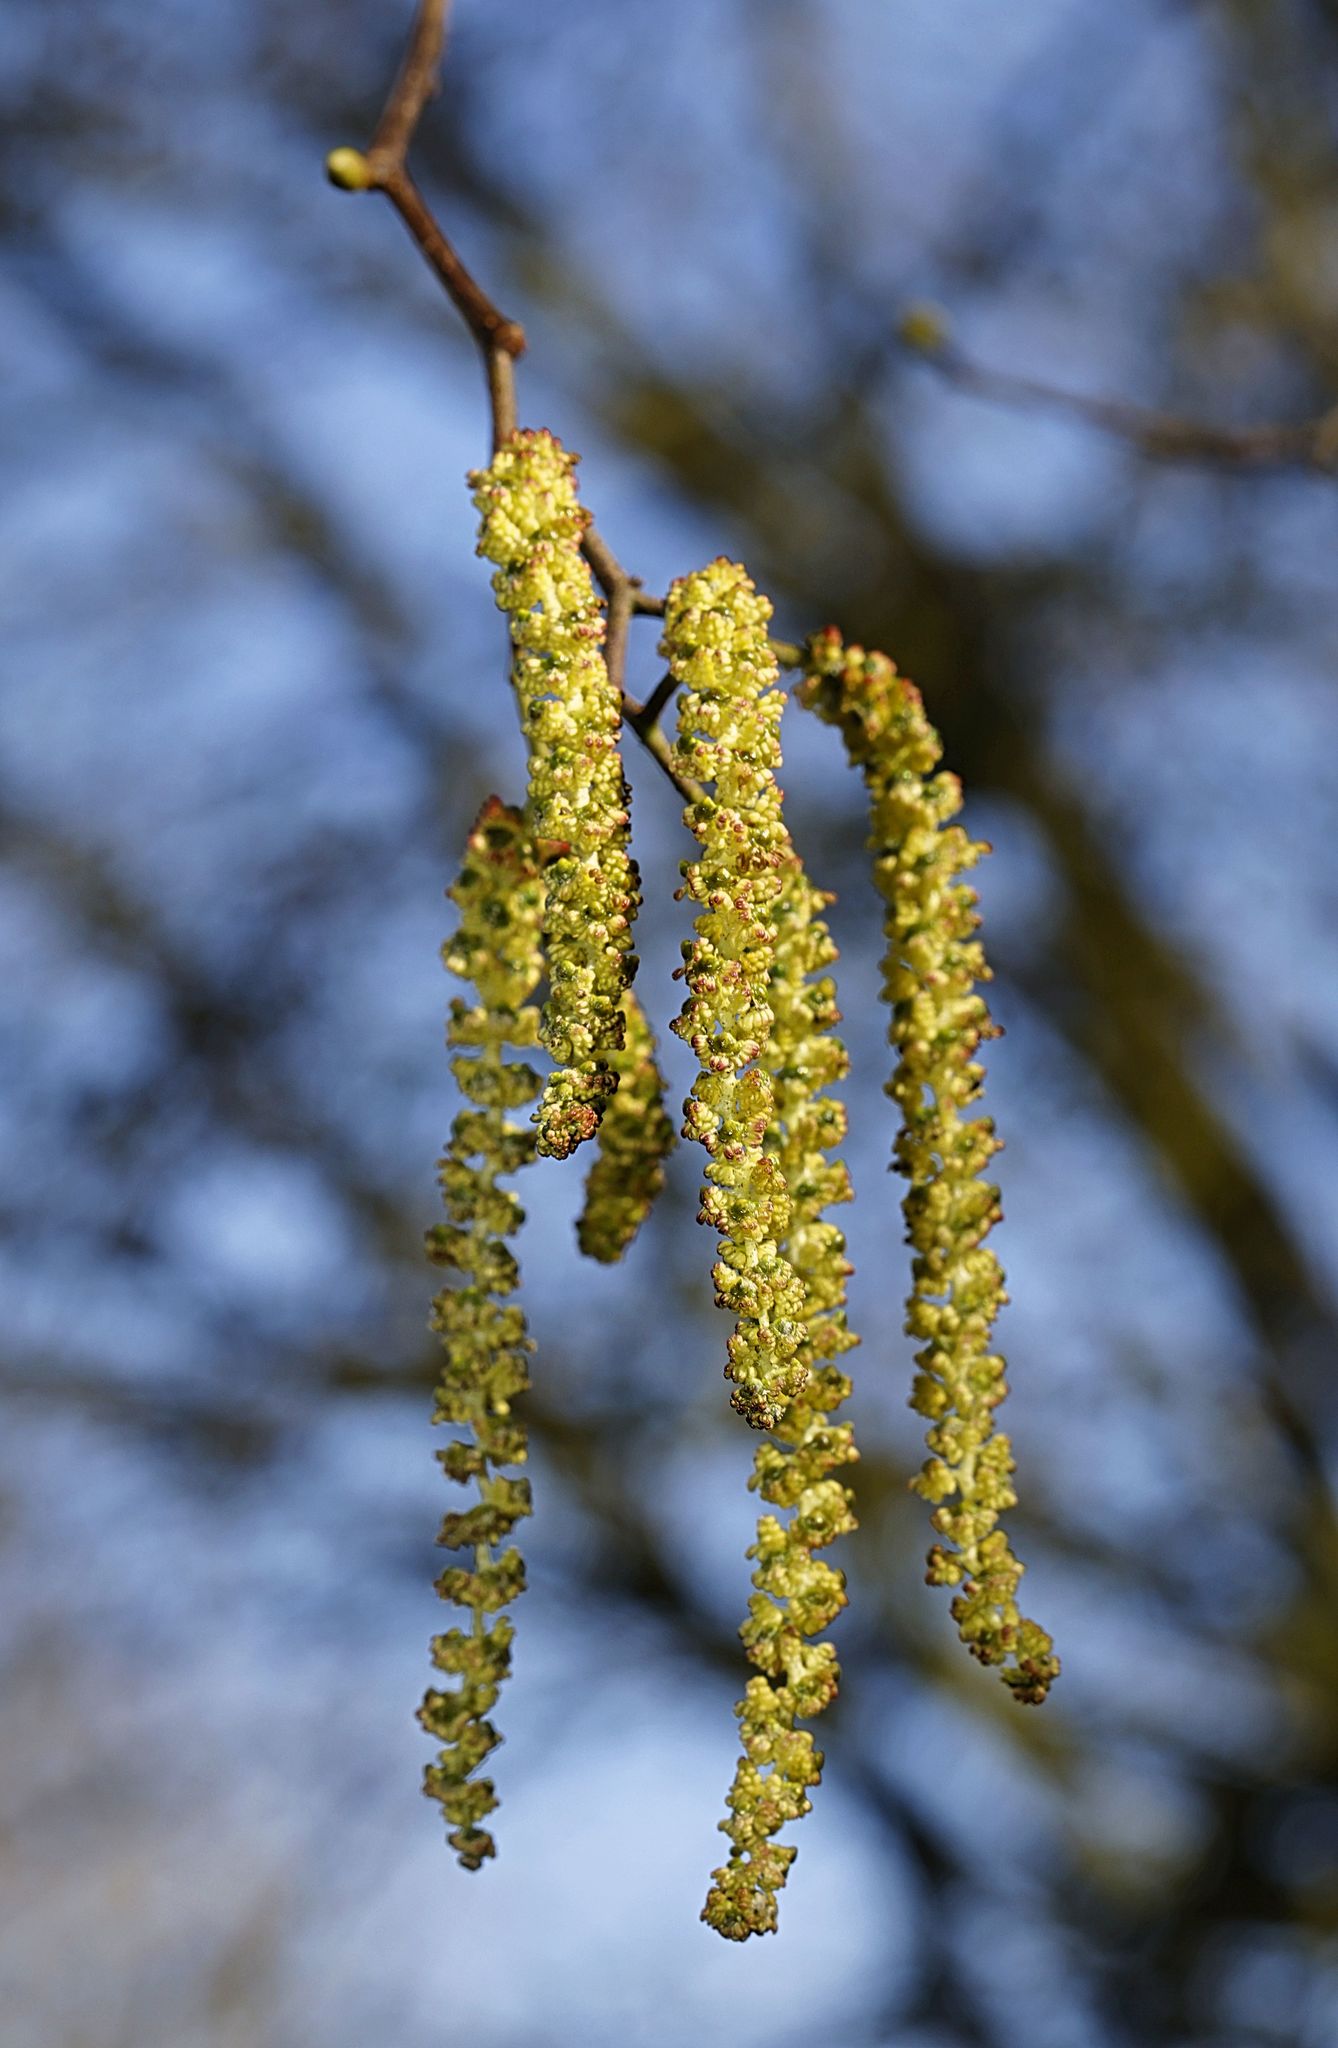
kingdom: Plantae
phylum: Tracheophyta
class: Magnoliopsida
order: Fagales
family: Betulaceae
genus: Alnus
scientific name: Alnus glutinosa
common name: Black alder
